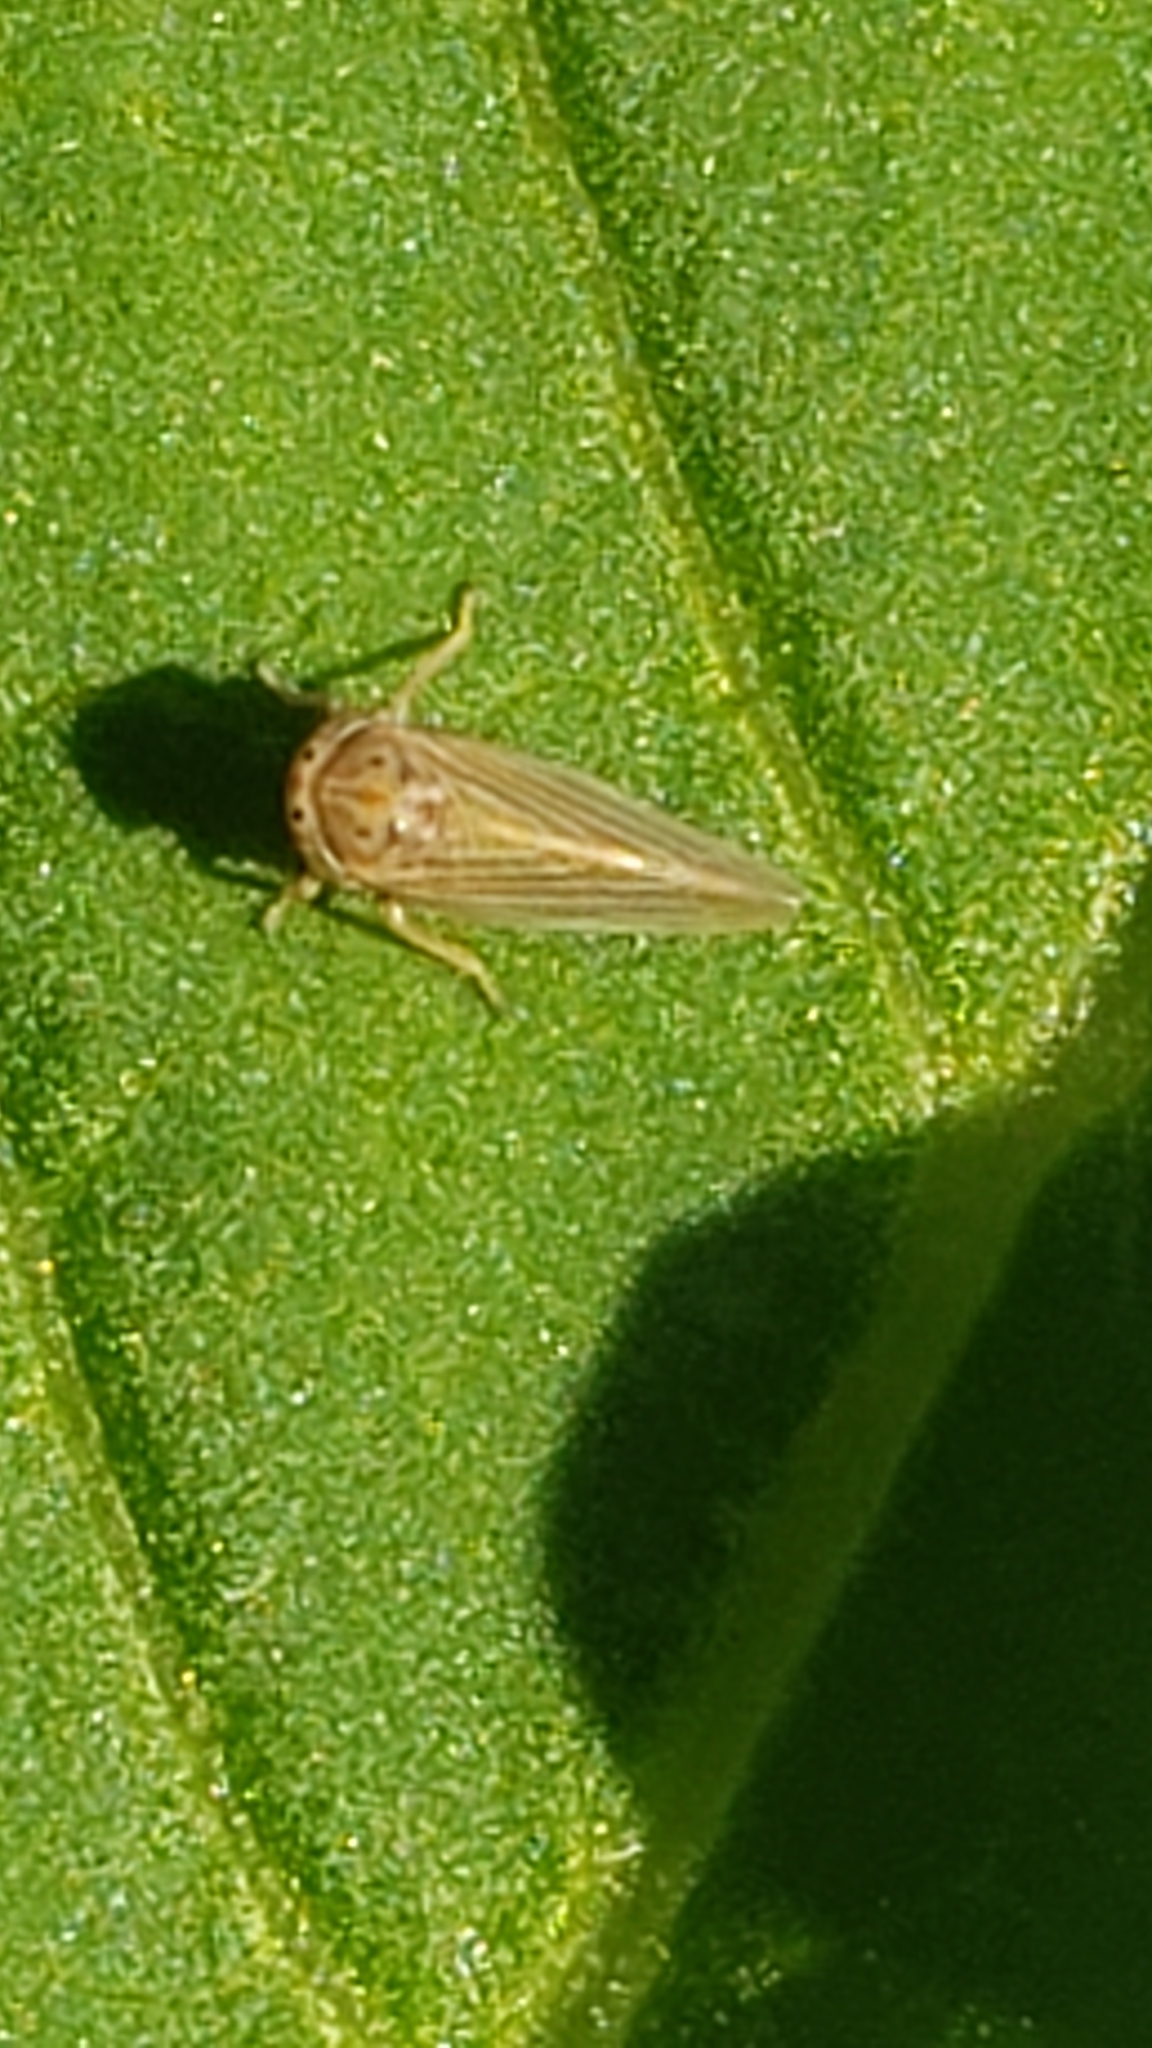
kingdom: Animalia
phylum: Arthropoda
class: Insecta
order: Hemiptera
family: Cicadellidae
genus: Agallia
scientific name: Agallia constricta
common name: The constricted leafhopper
